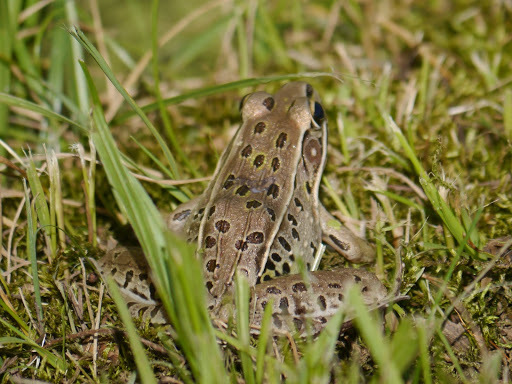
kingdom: Animalia
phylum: Chordata
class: Amphibia
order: Anura
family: Ranidae
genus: Lithobates
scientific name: Lithobates sphenocephalus
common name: Southern leopard frog
